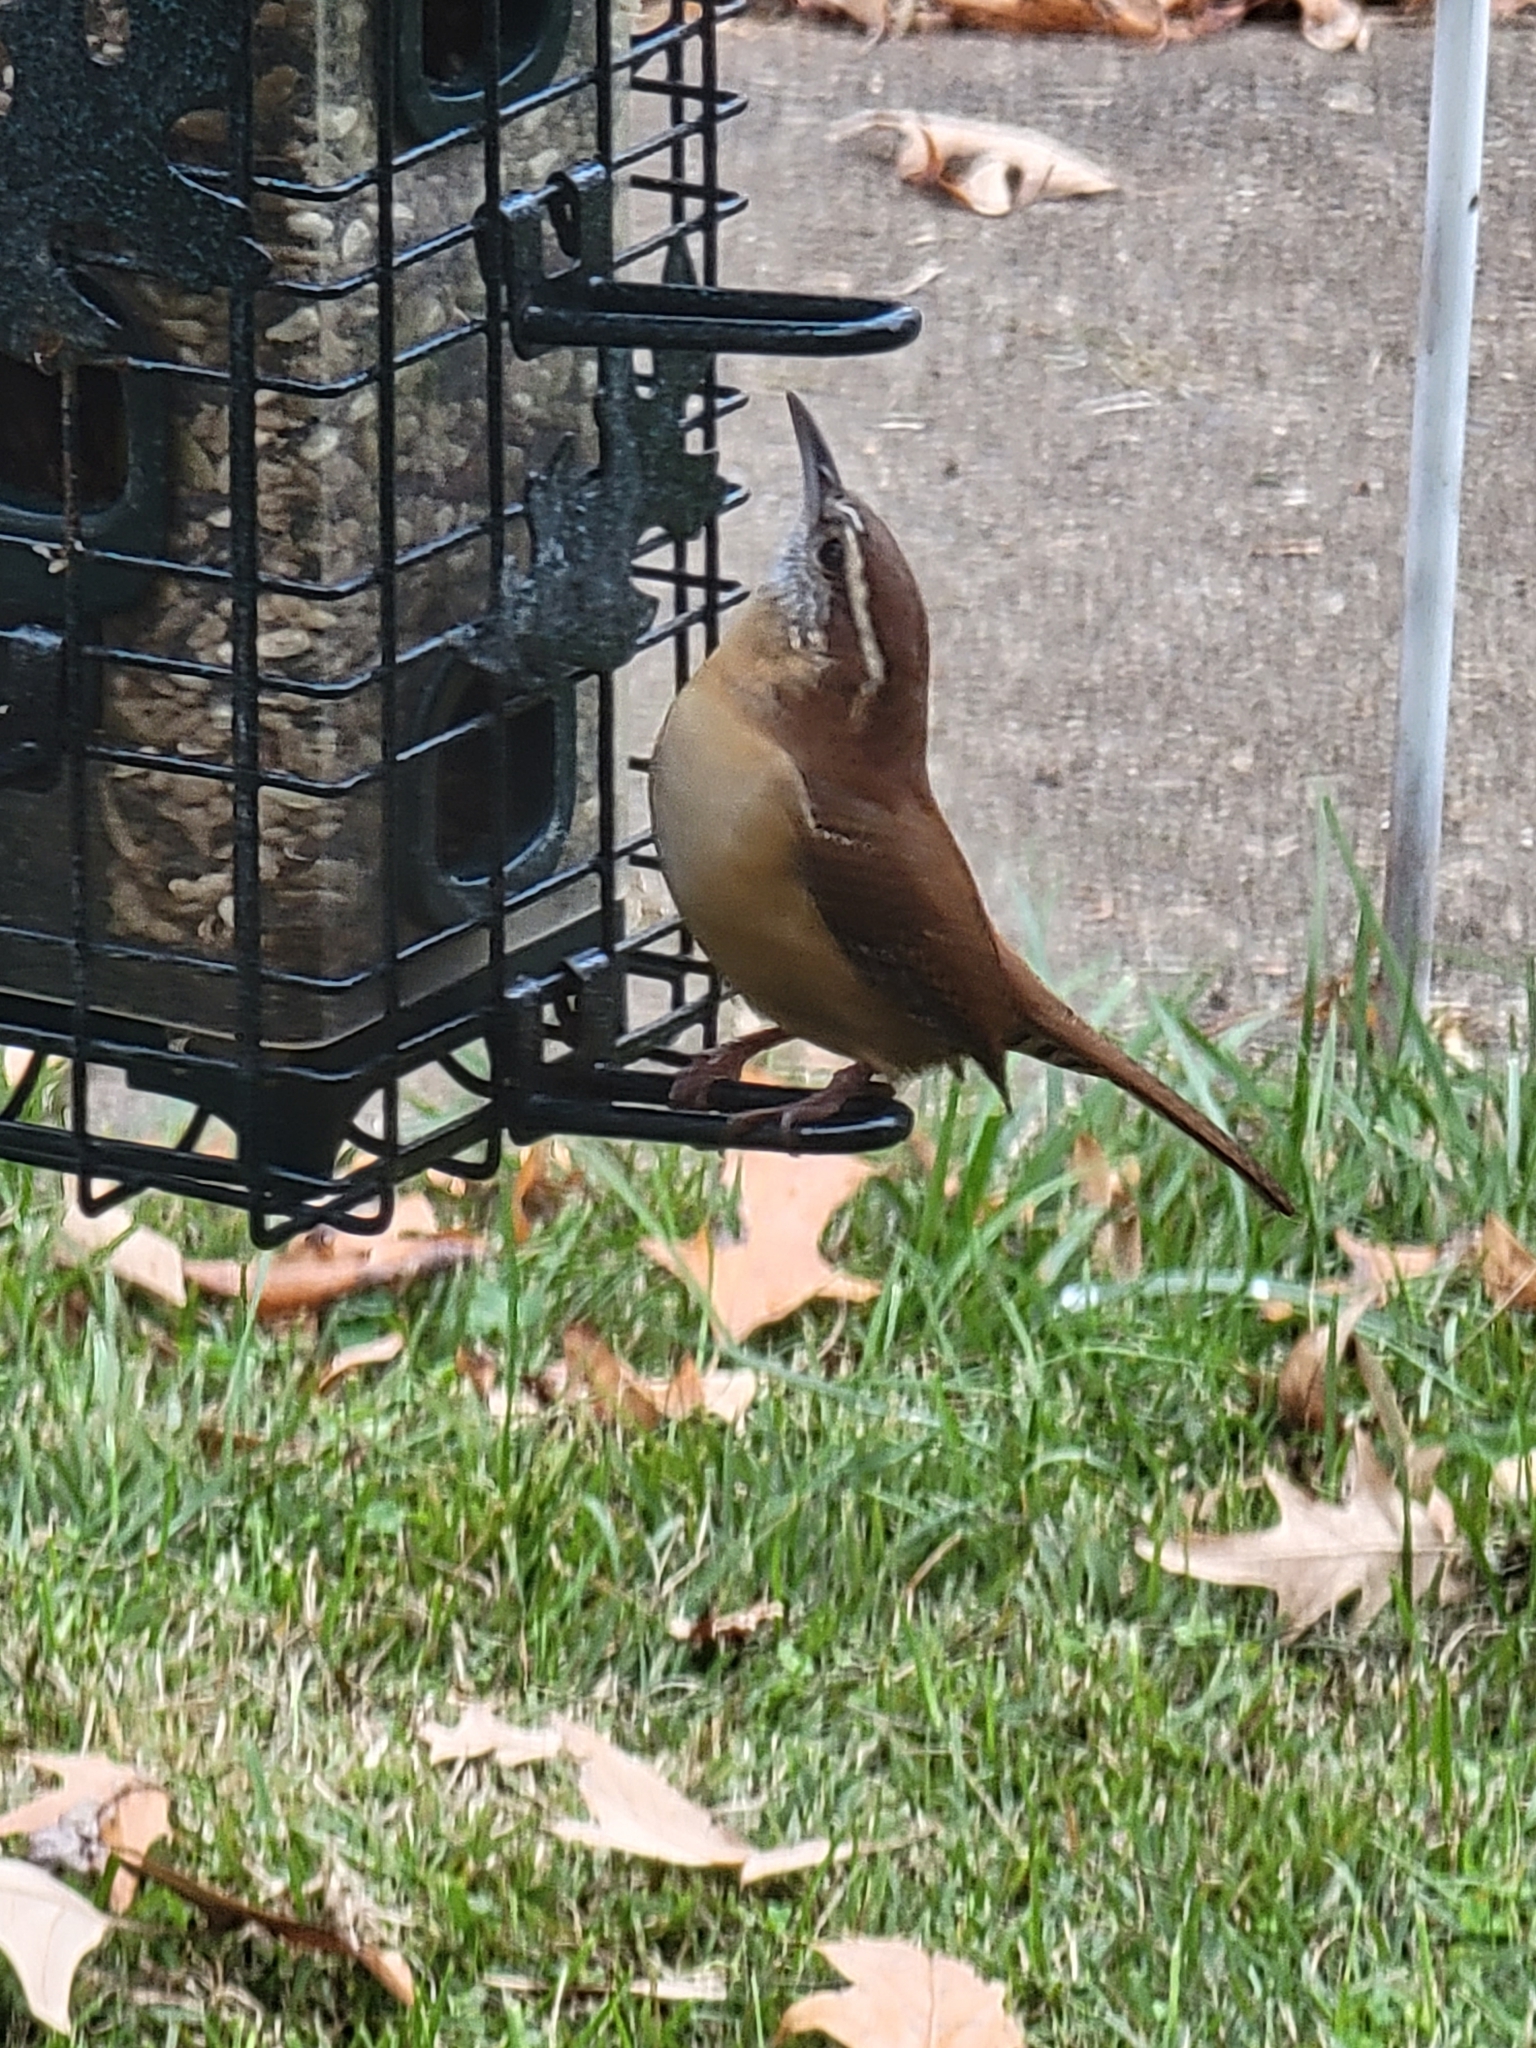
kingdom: Animalia
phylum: Chordata
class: Aves
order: Passeriformes
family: Troglodytidae
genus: Thryothorus
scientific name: Thryothorus ludovicianus
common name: Carolina wren
